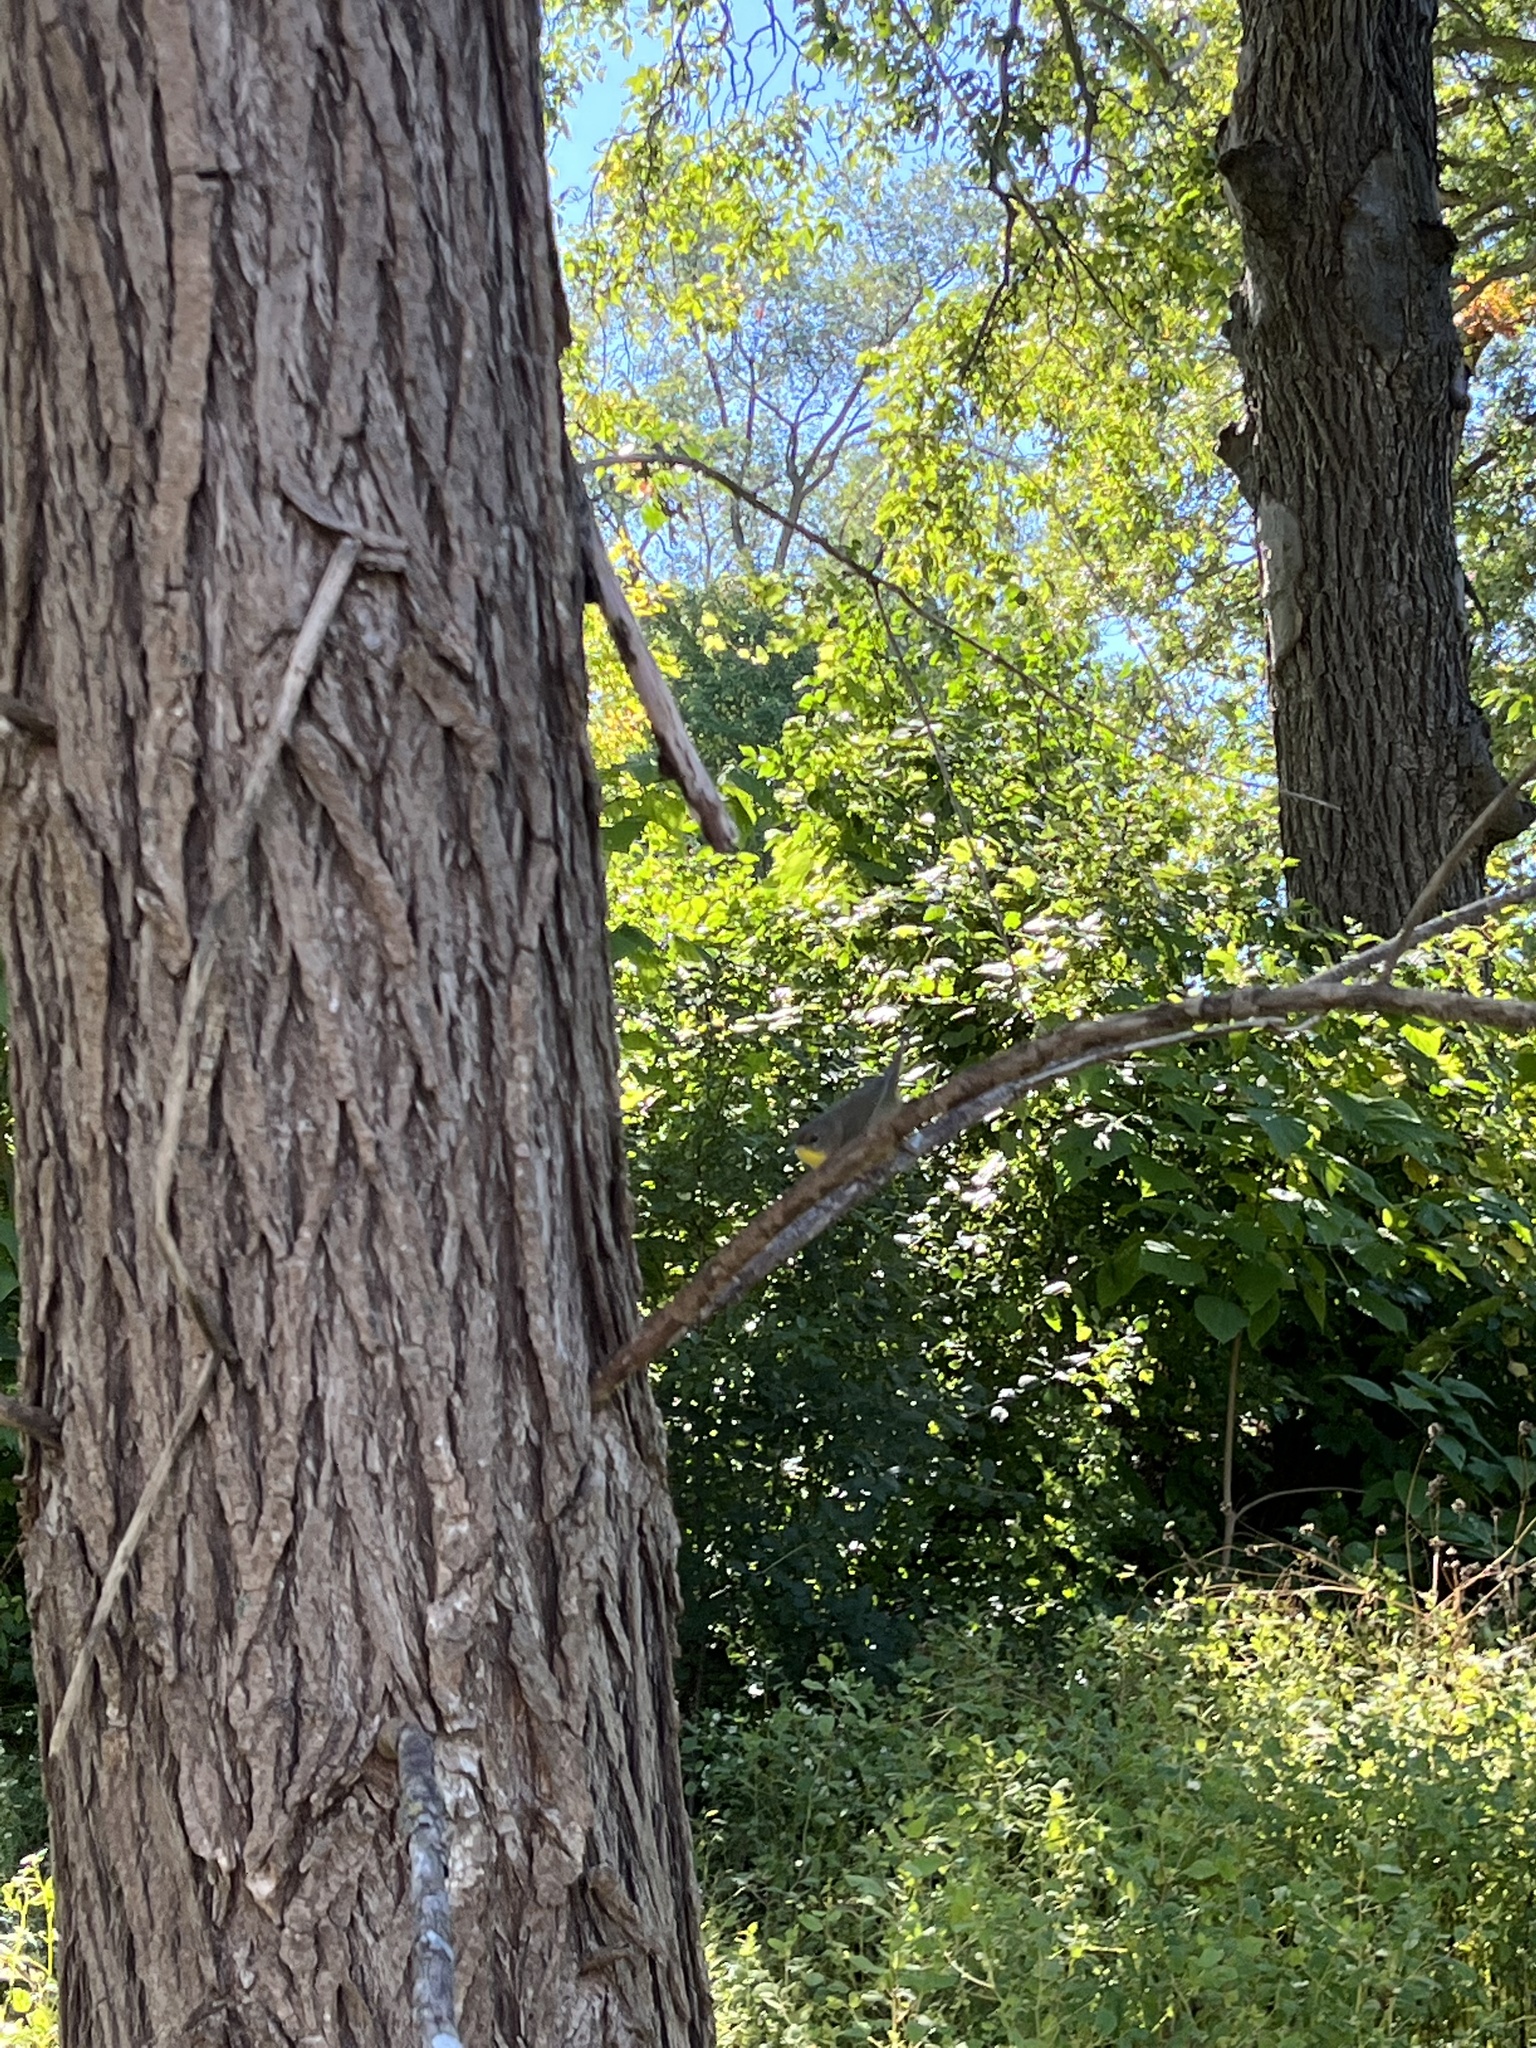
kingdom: Animalia
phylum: Chordata
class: Aves
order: Passeriformes
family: Parulidae
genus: Geothlypis
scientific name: Geothlypis trichas
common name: Common yellowthroat
